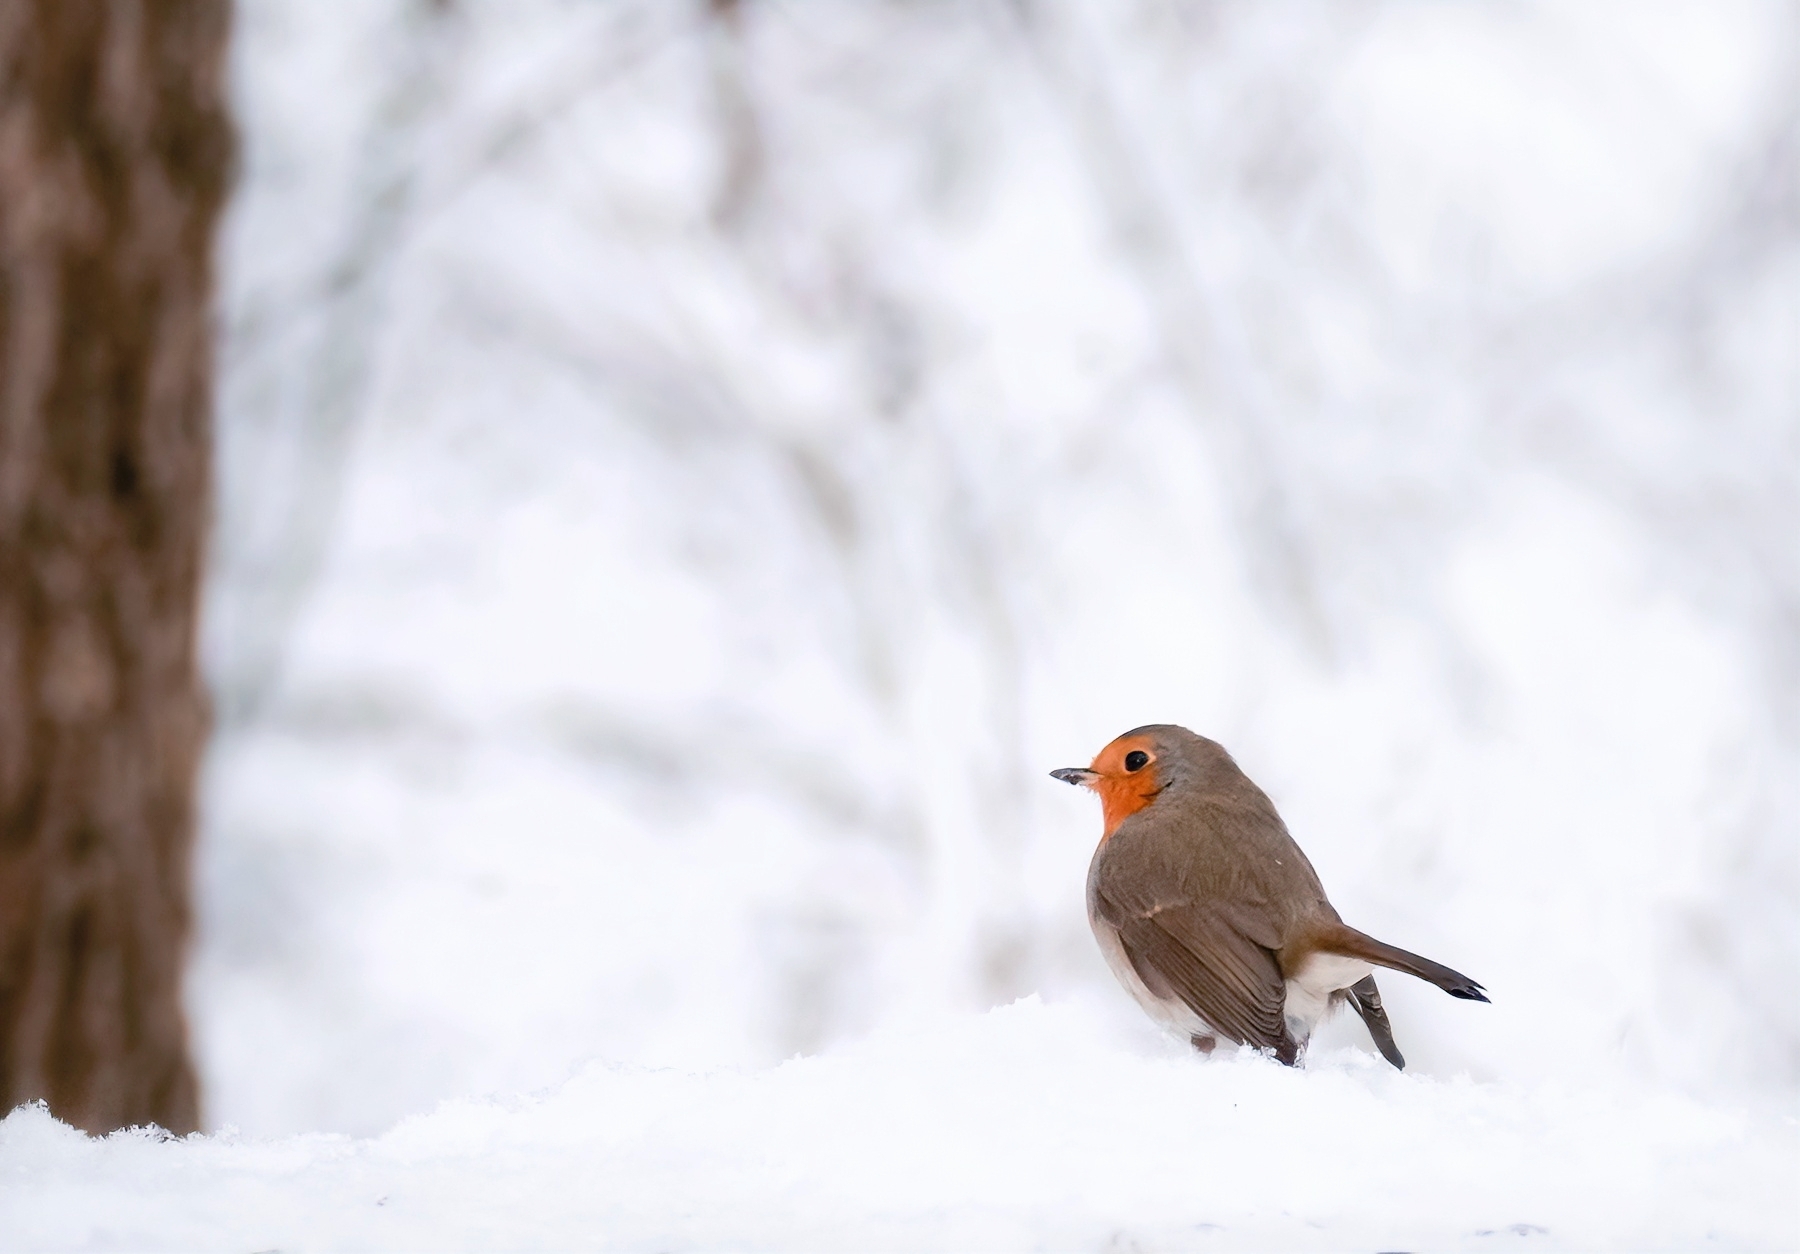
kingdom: Animalia
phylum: Chordata
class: Aves
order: Passeriformes
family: Muscicapidae
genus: Erithacus
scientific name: Erithacus rubecula
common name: European robin
